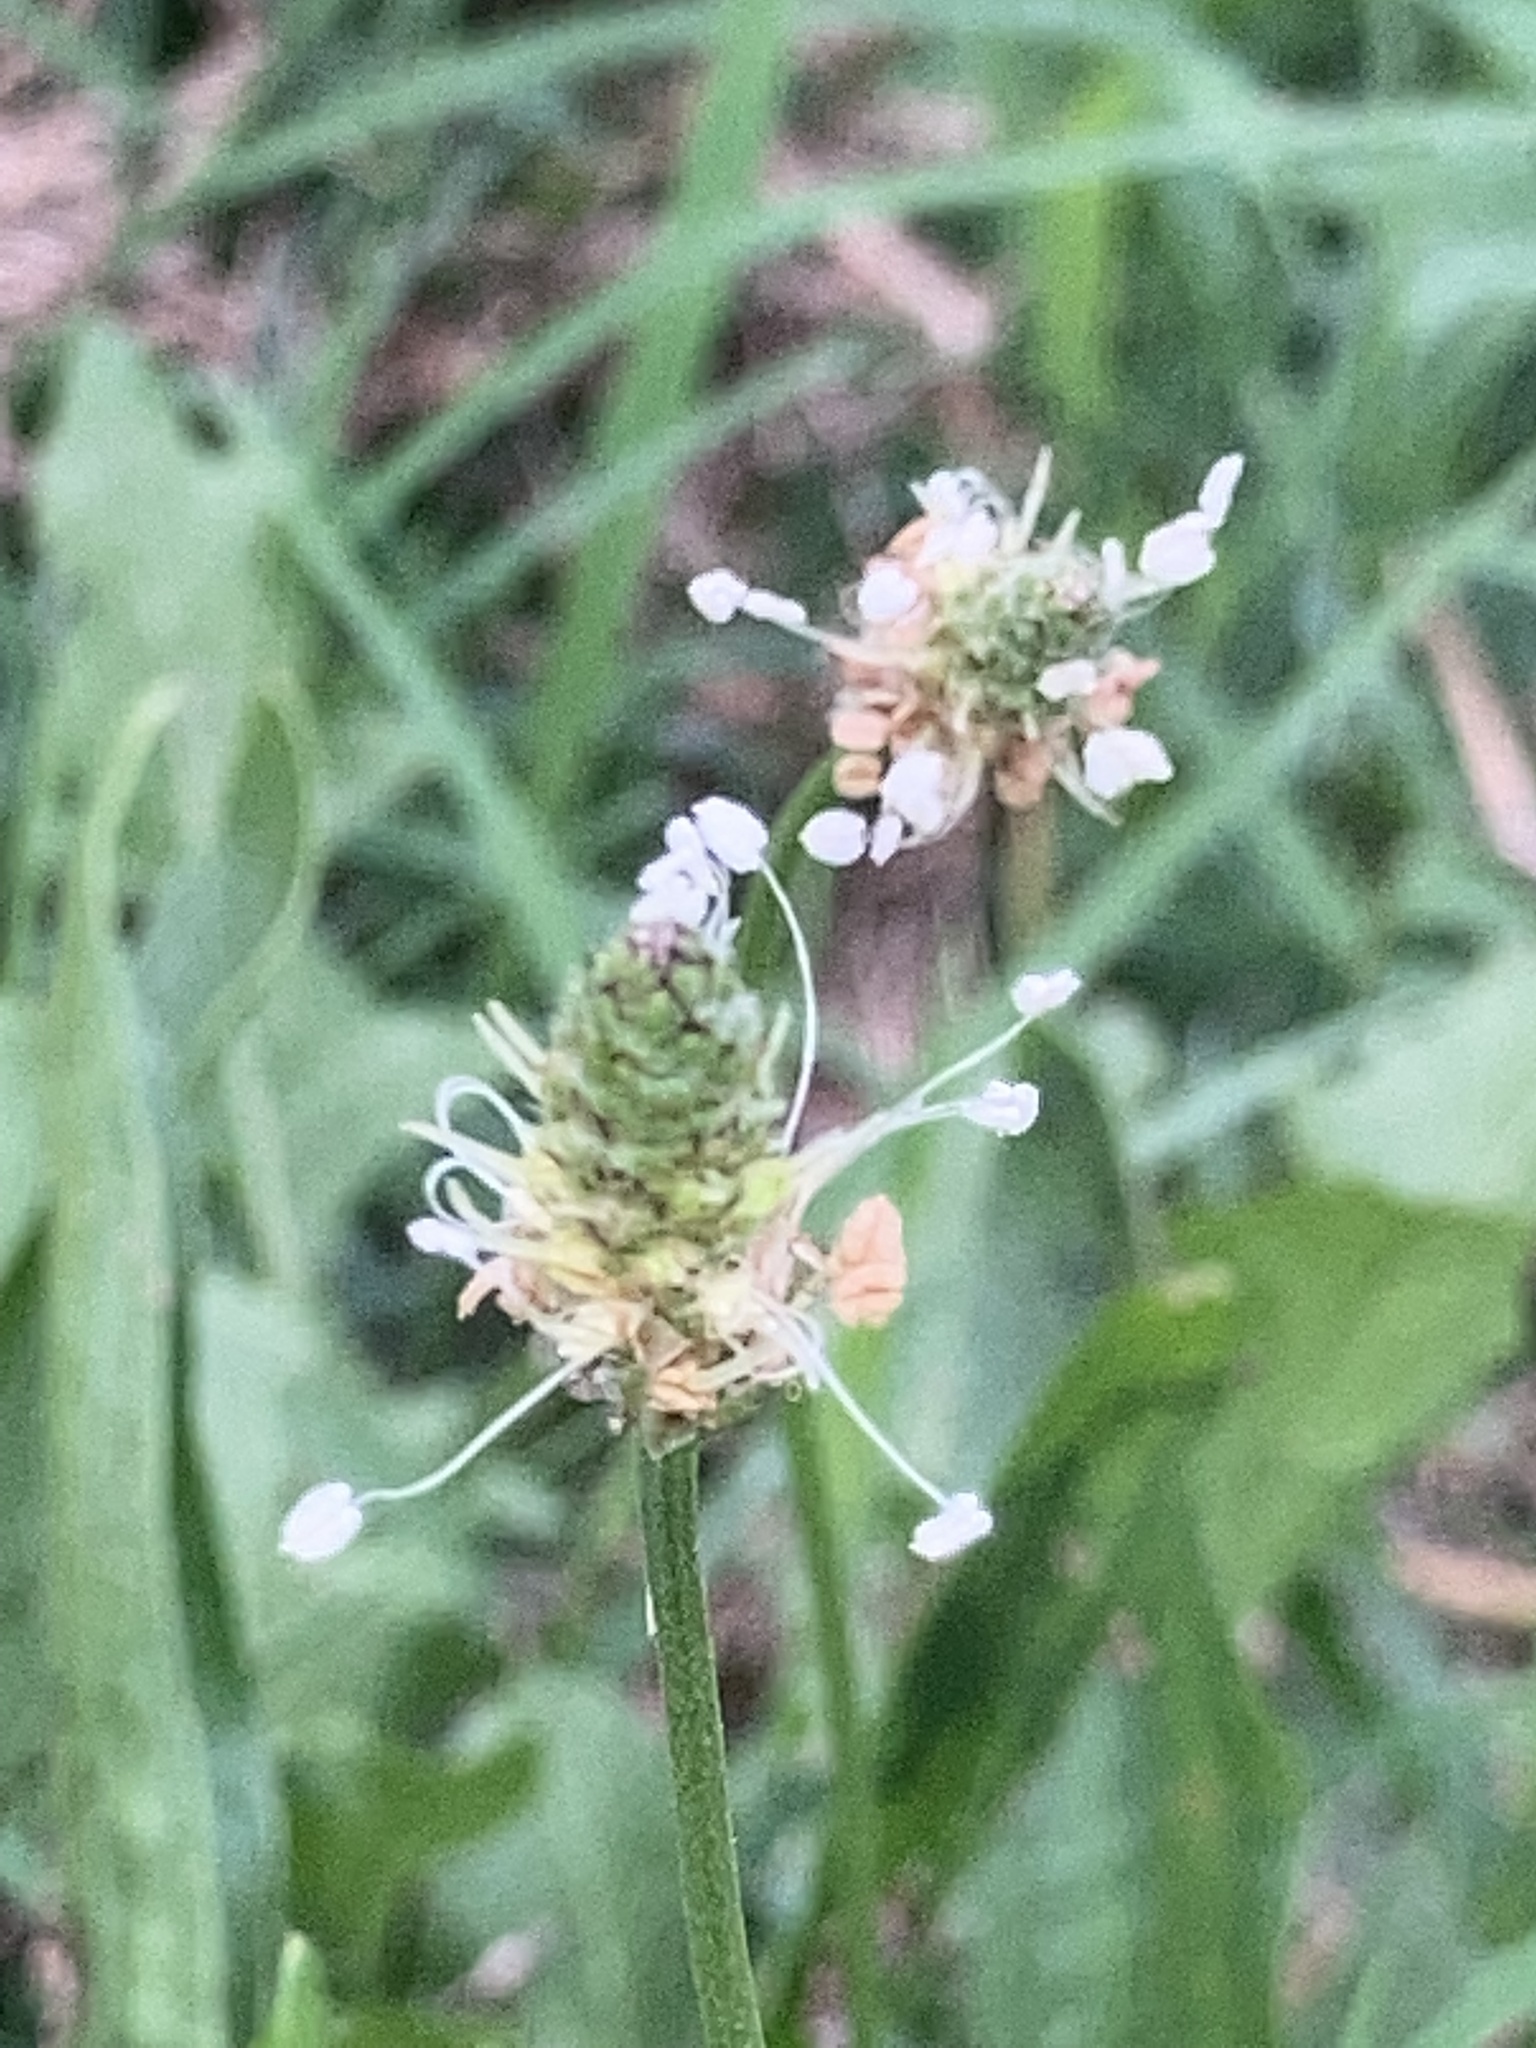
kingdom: Plantae
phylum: Tracheophyta
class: Magnoliopsida
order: Lamiales
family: Plantaginaceae
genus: Plantago
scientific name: Plantago lanceolata
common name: Ribwort plantain
